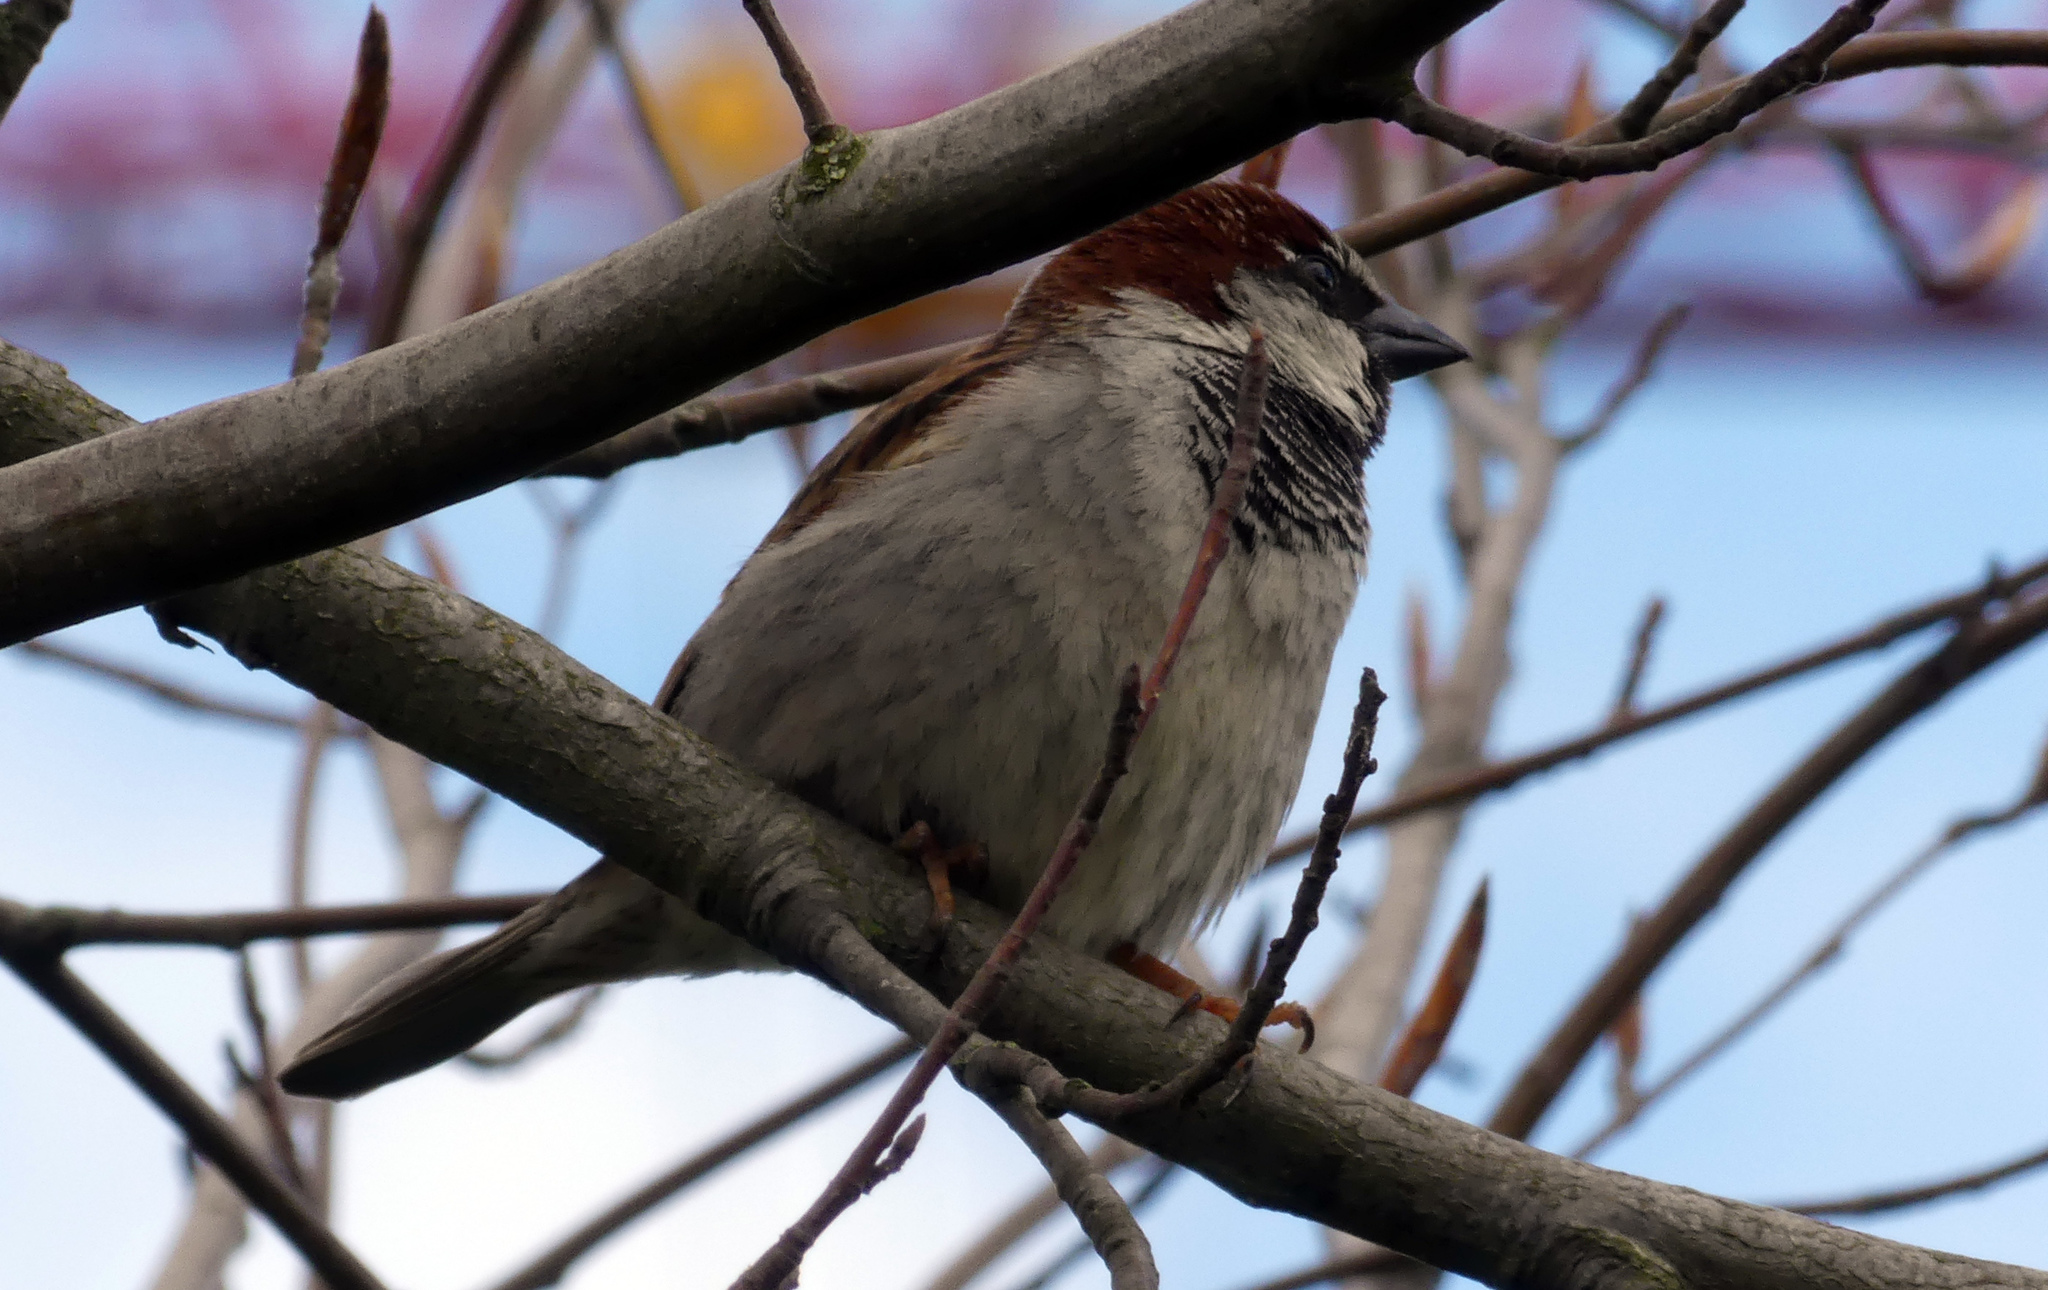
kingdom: Animalia
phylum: Chordata
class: Aves
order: Passeriformes
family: Passeridae
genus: Passer
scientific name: Passer domesticus
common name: House sparrow
